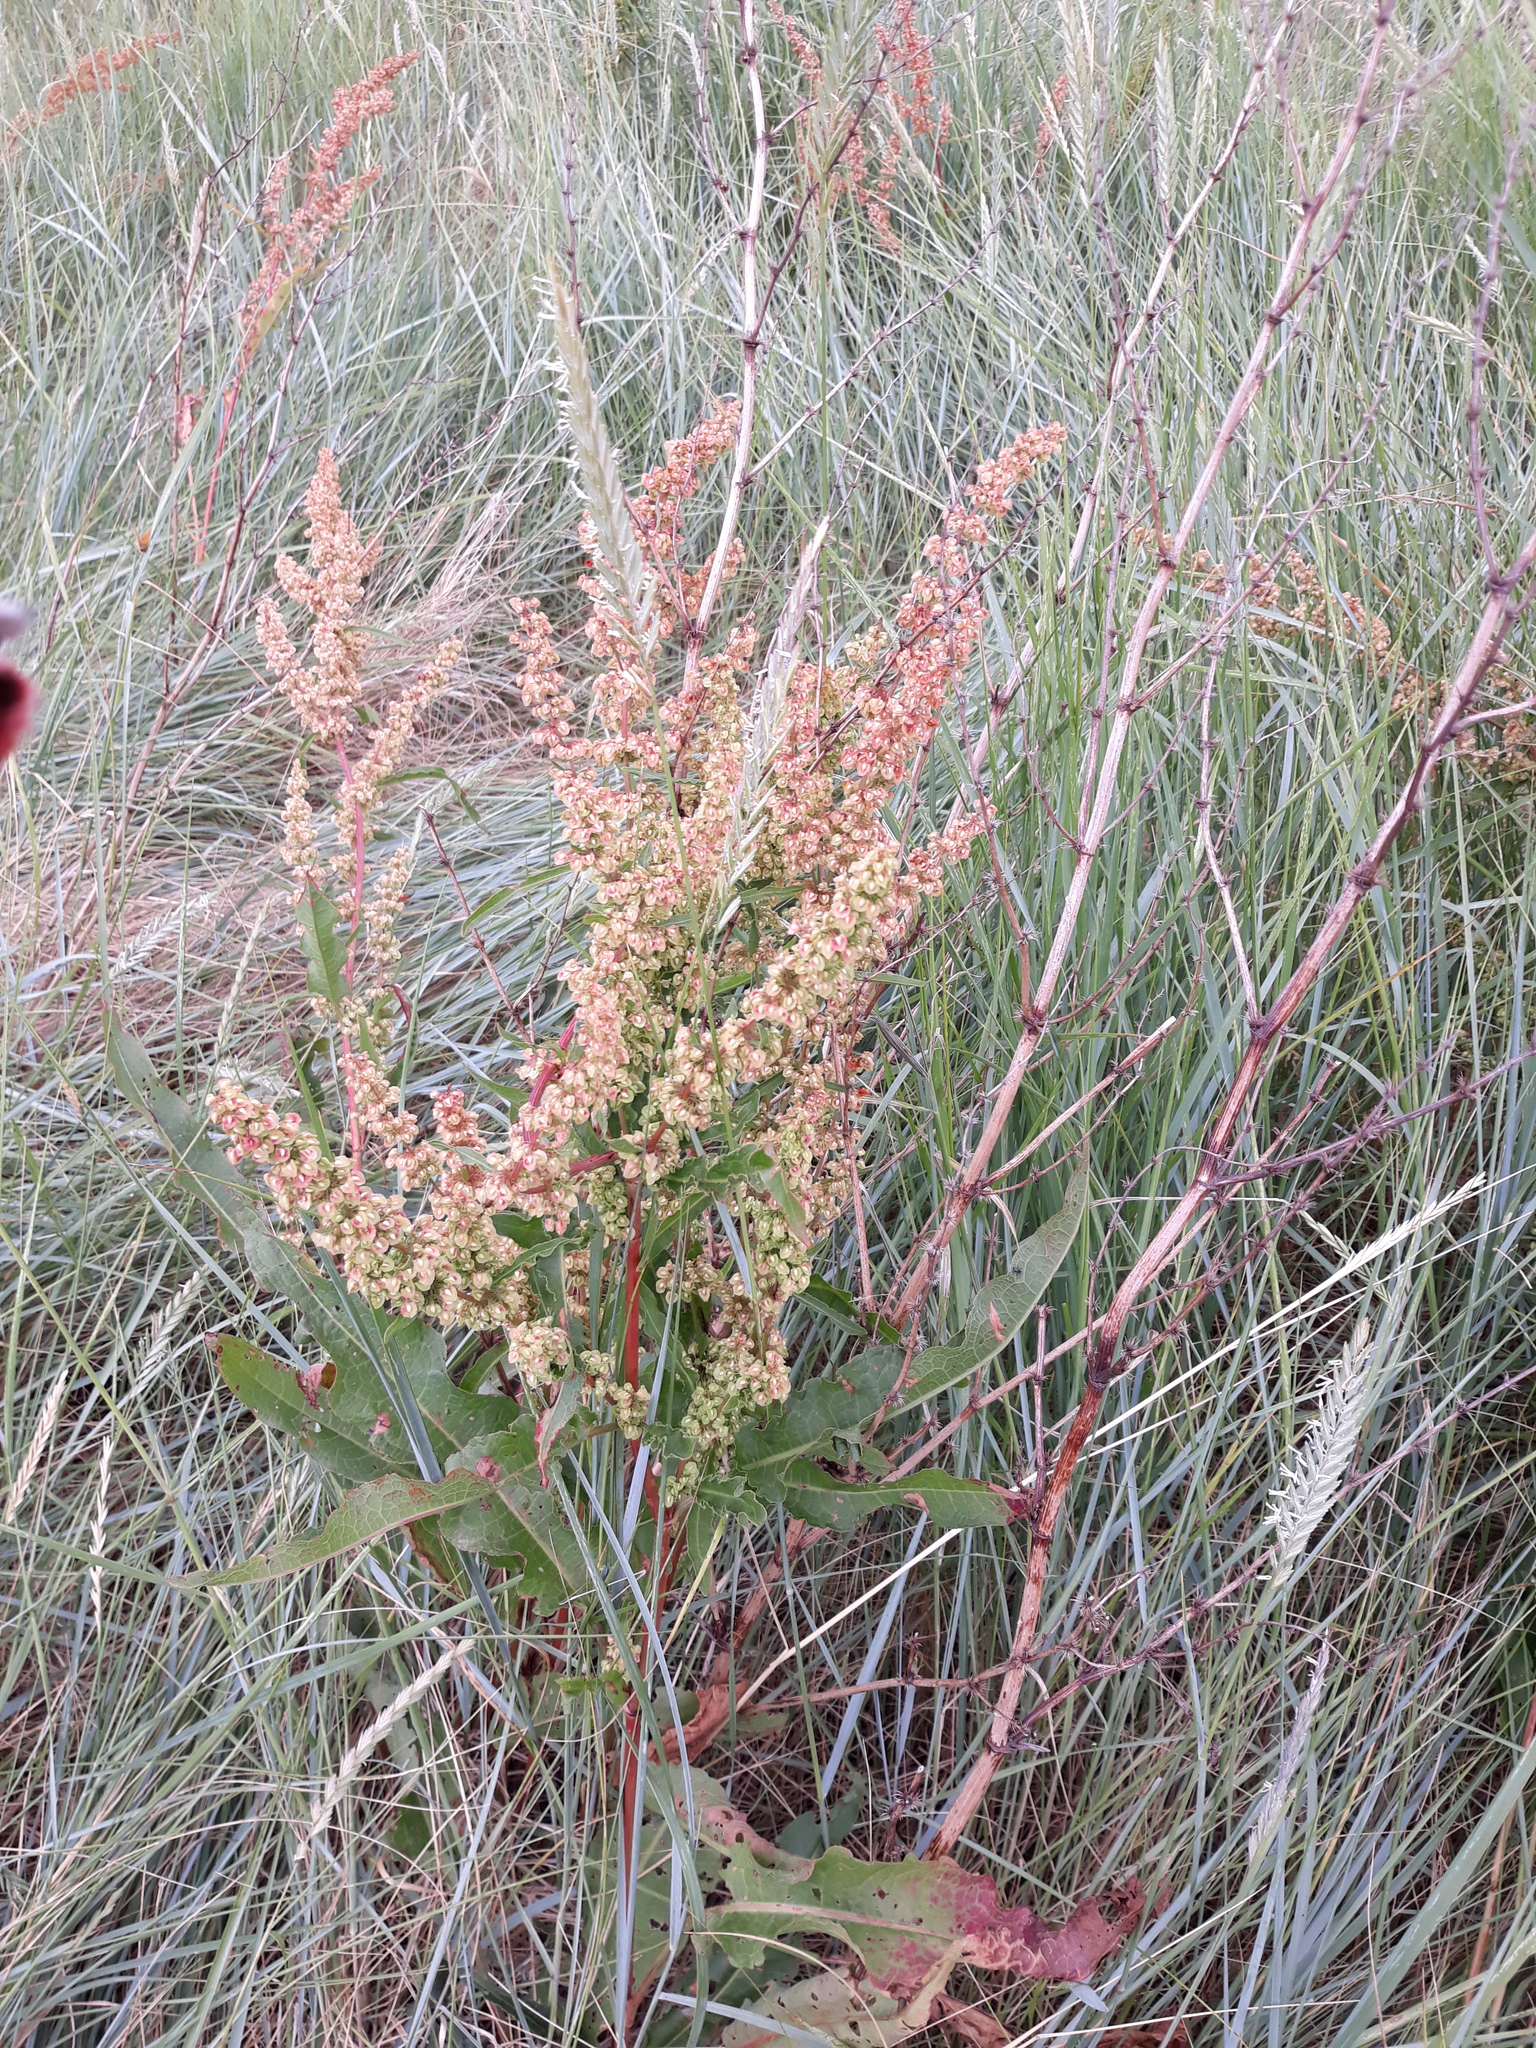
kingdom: Plantae
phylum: Tracheophyta
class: Magnoliopsida
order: Caryophyllales
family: Polygonaceae
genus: Rumex
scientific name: Rumex crispus
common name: Curled dock
